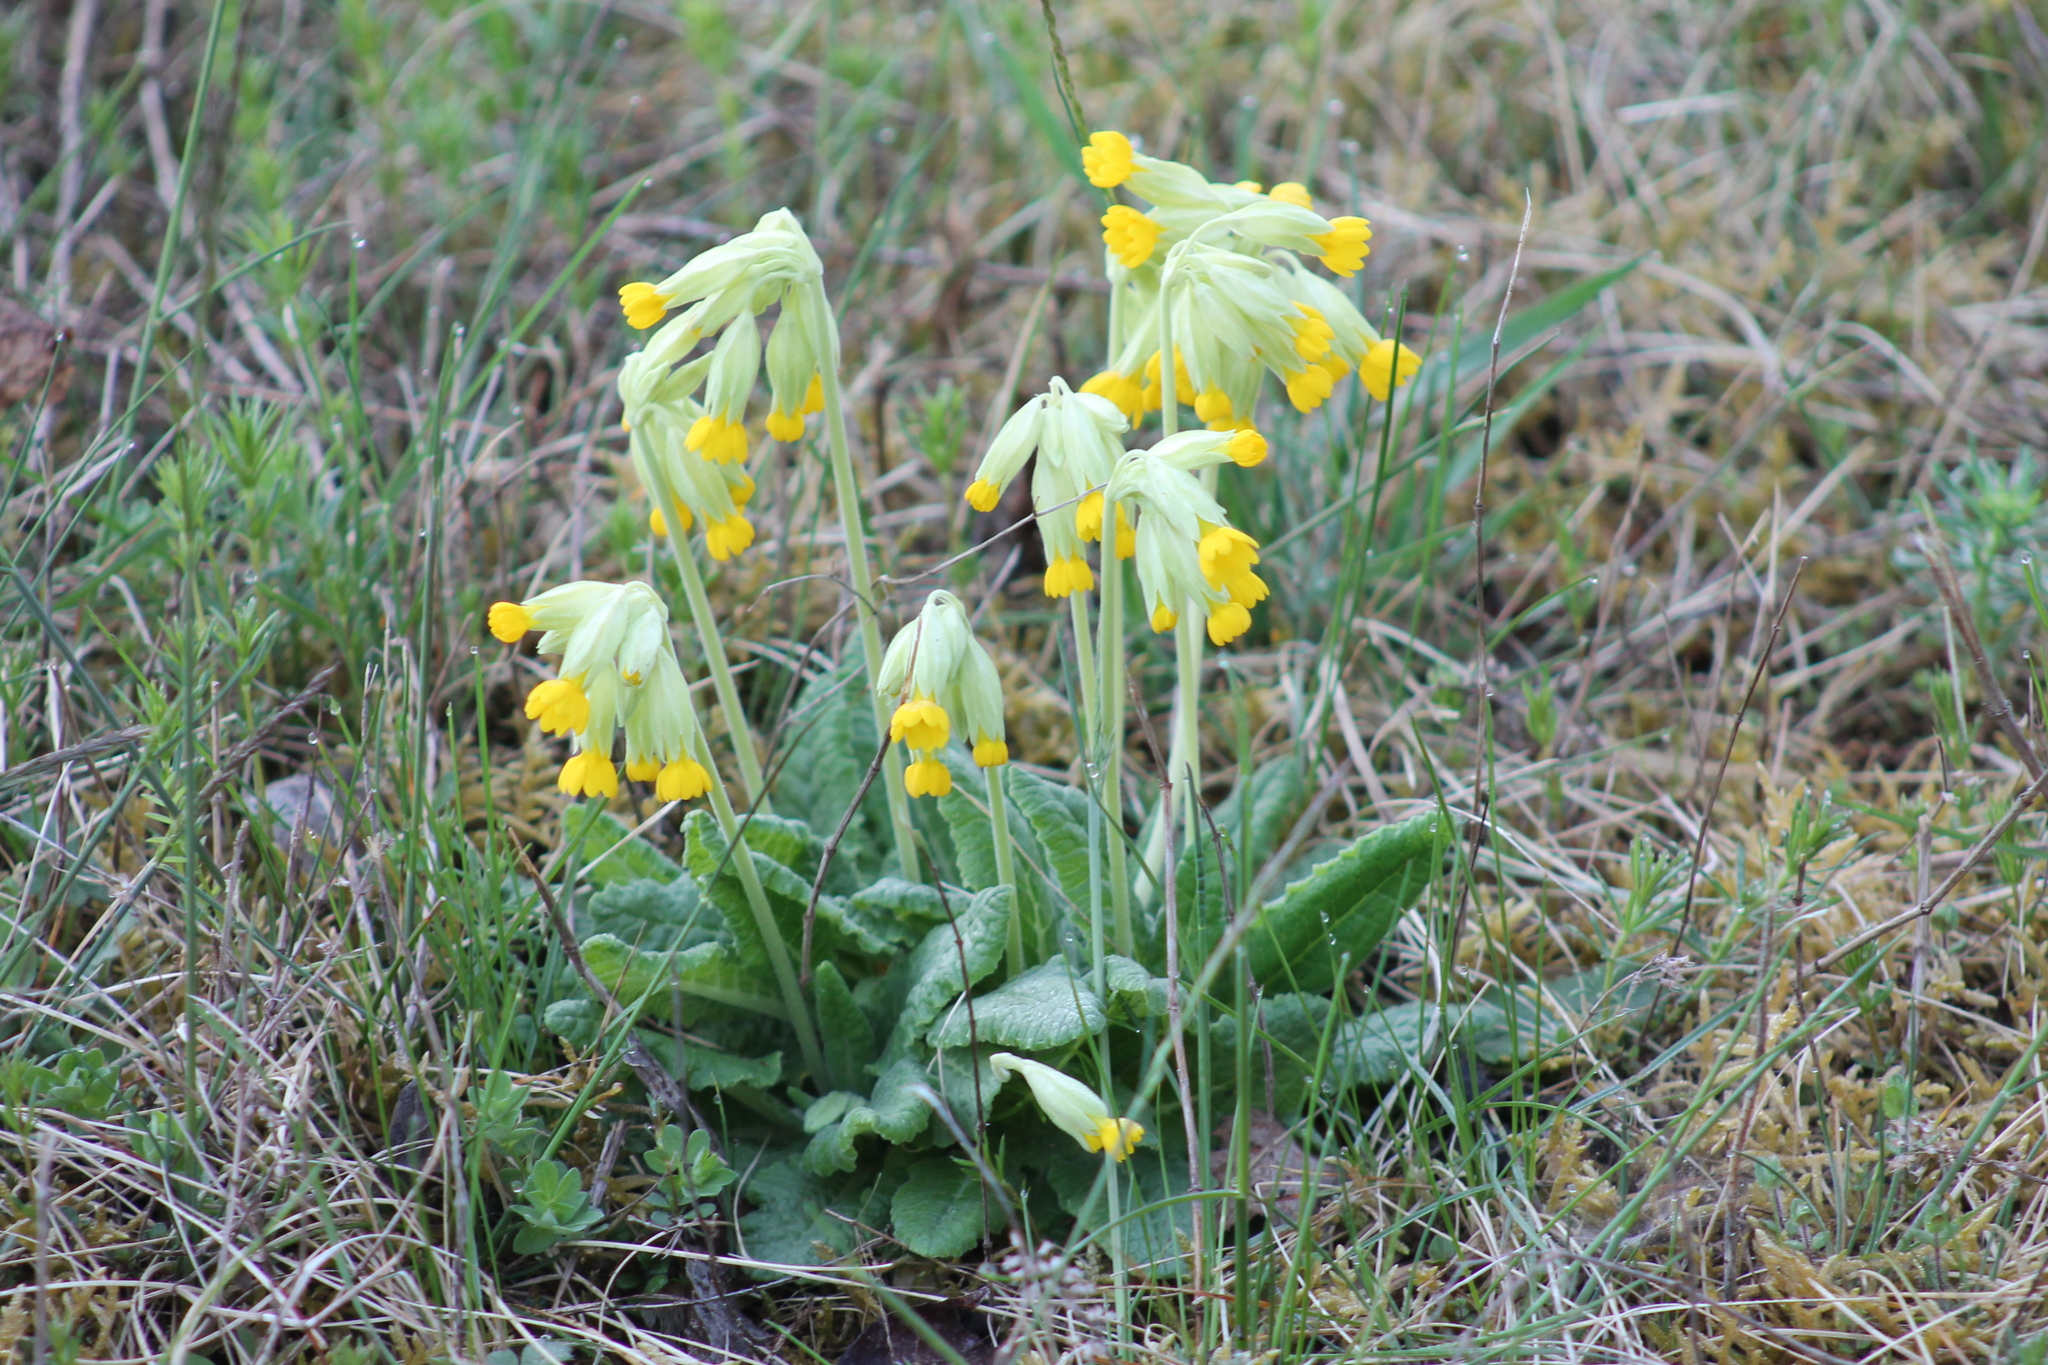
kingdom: Plantae
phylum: Tracheophyta
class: Magnoliopsida
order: Ericales
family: Primulaceae
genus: Primula
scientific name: Primula veris
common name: Cowslip
